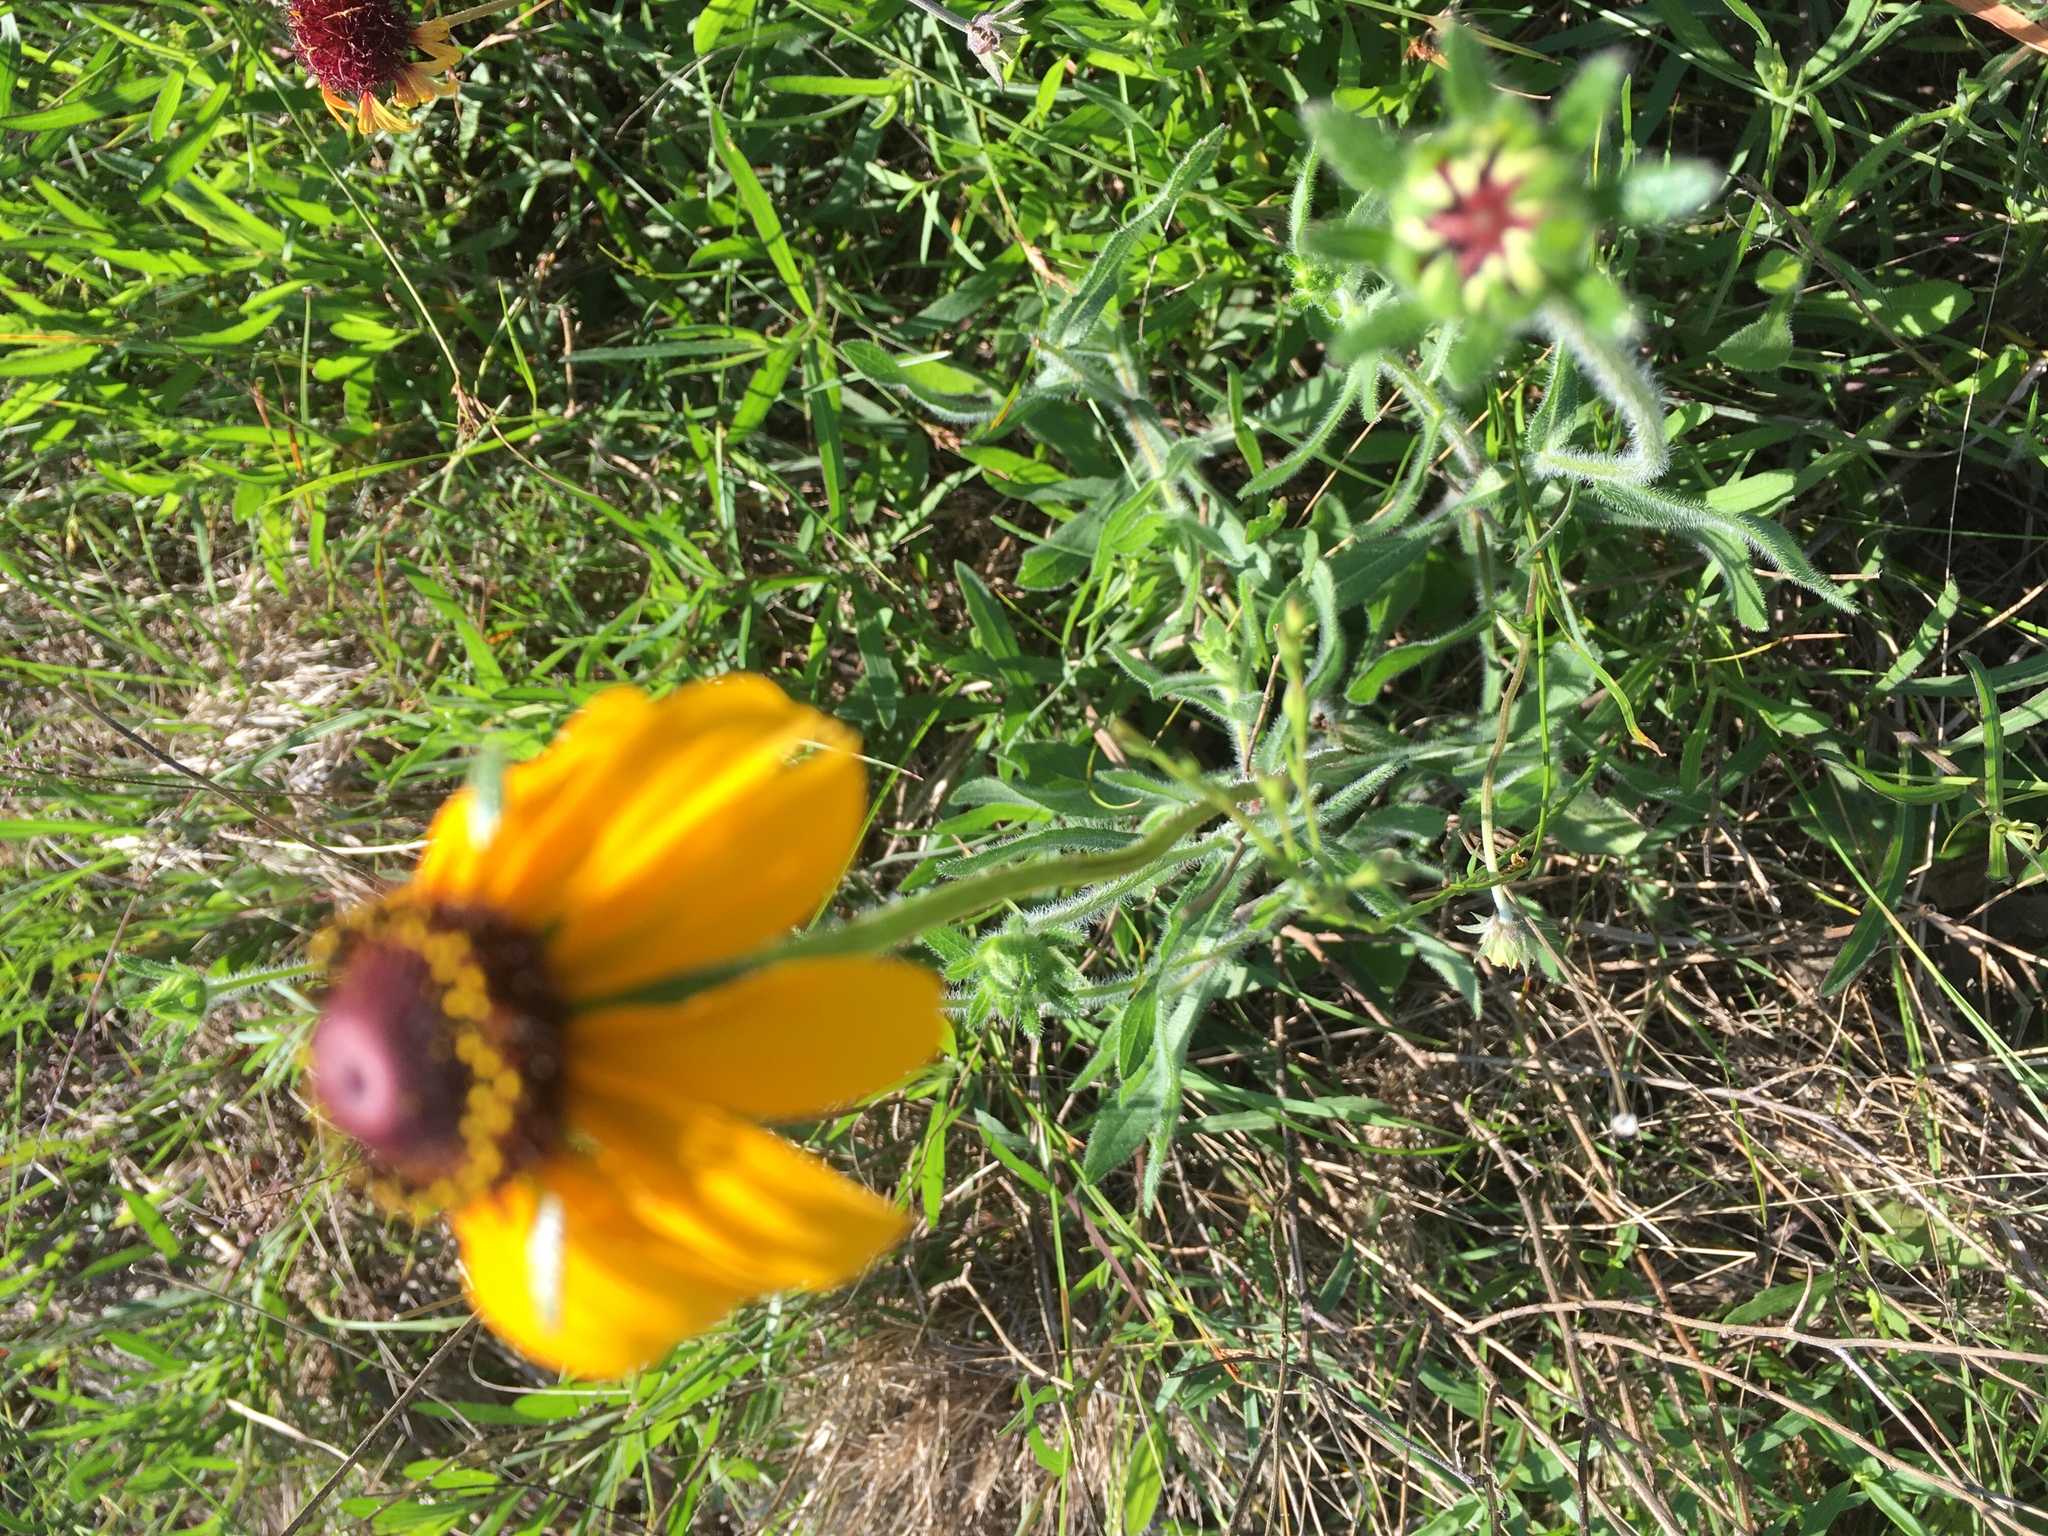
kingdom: Plantae
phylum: Tracheophyta
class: Magnoliopsida
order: Asterales
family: Asteraceae
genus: Rudbeckia
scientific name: Rudbeckia hirta
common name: Black-eyed-susan
